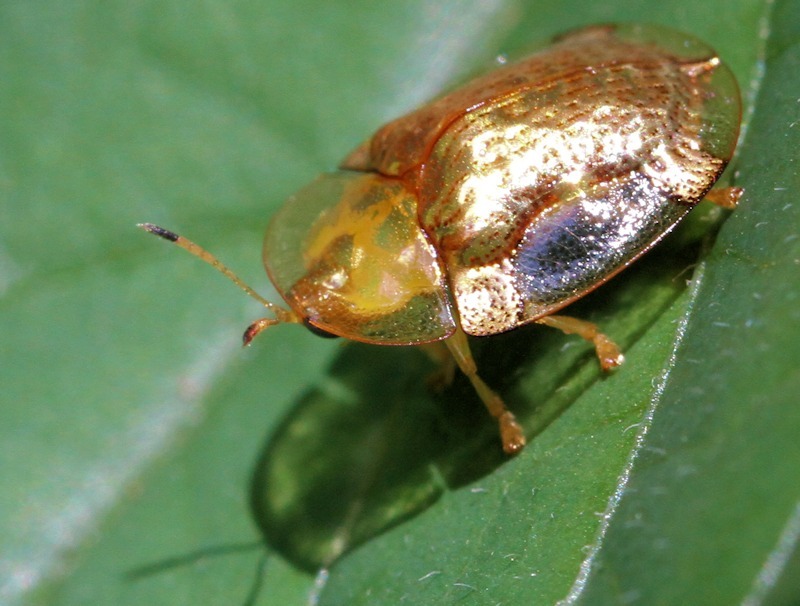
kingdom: Animalia
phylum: Arthropoda
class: Insecta
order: Coleoptera
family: Chrysomelidae
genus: Aspidimorpha
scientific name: Aspidimorpha quadriremis
